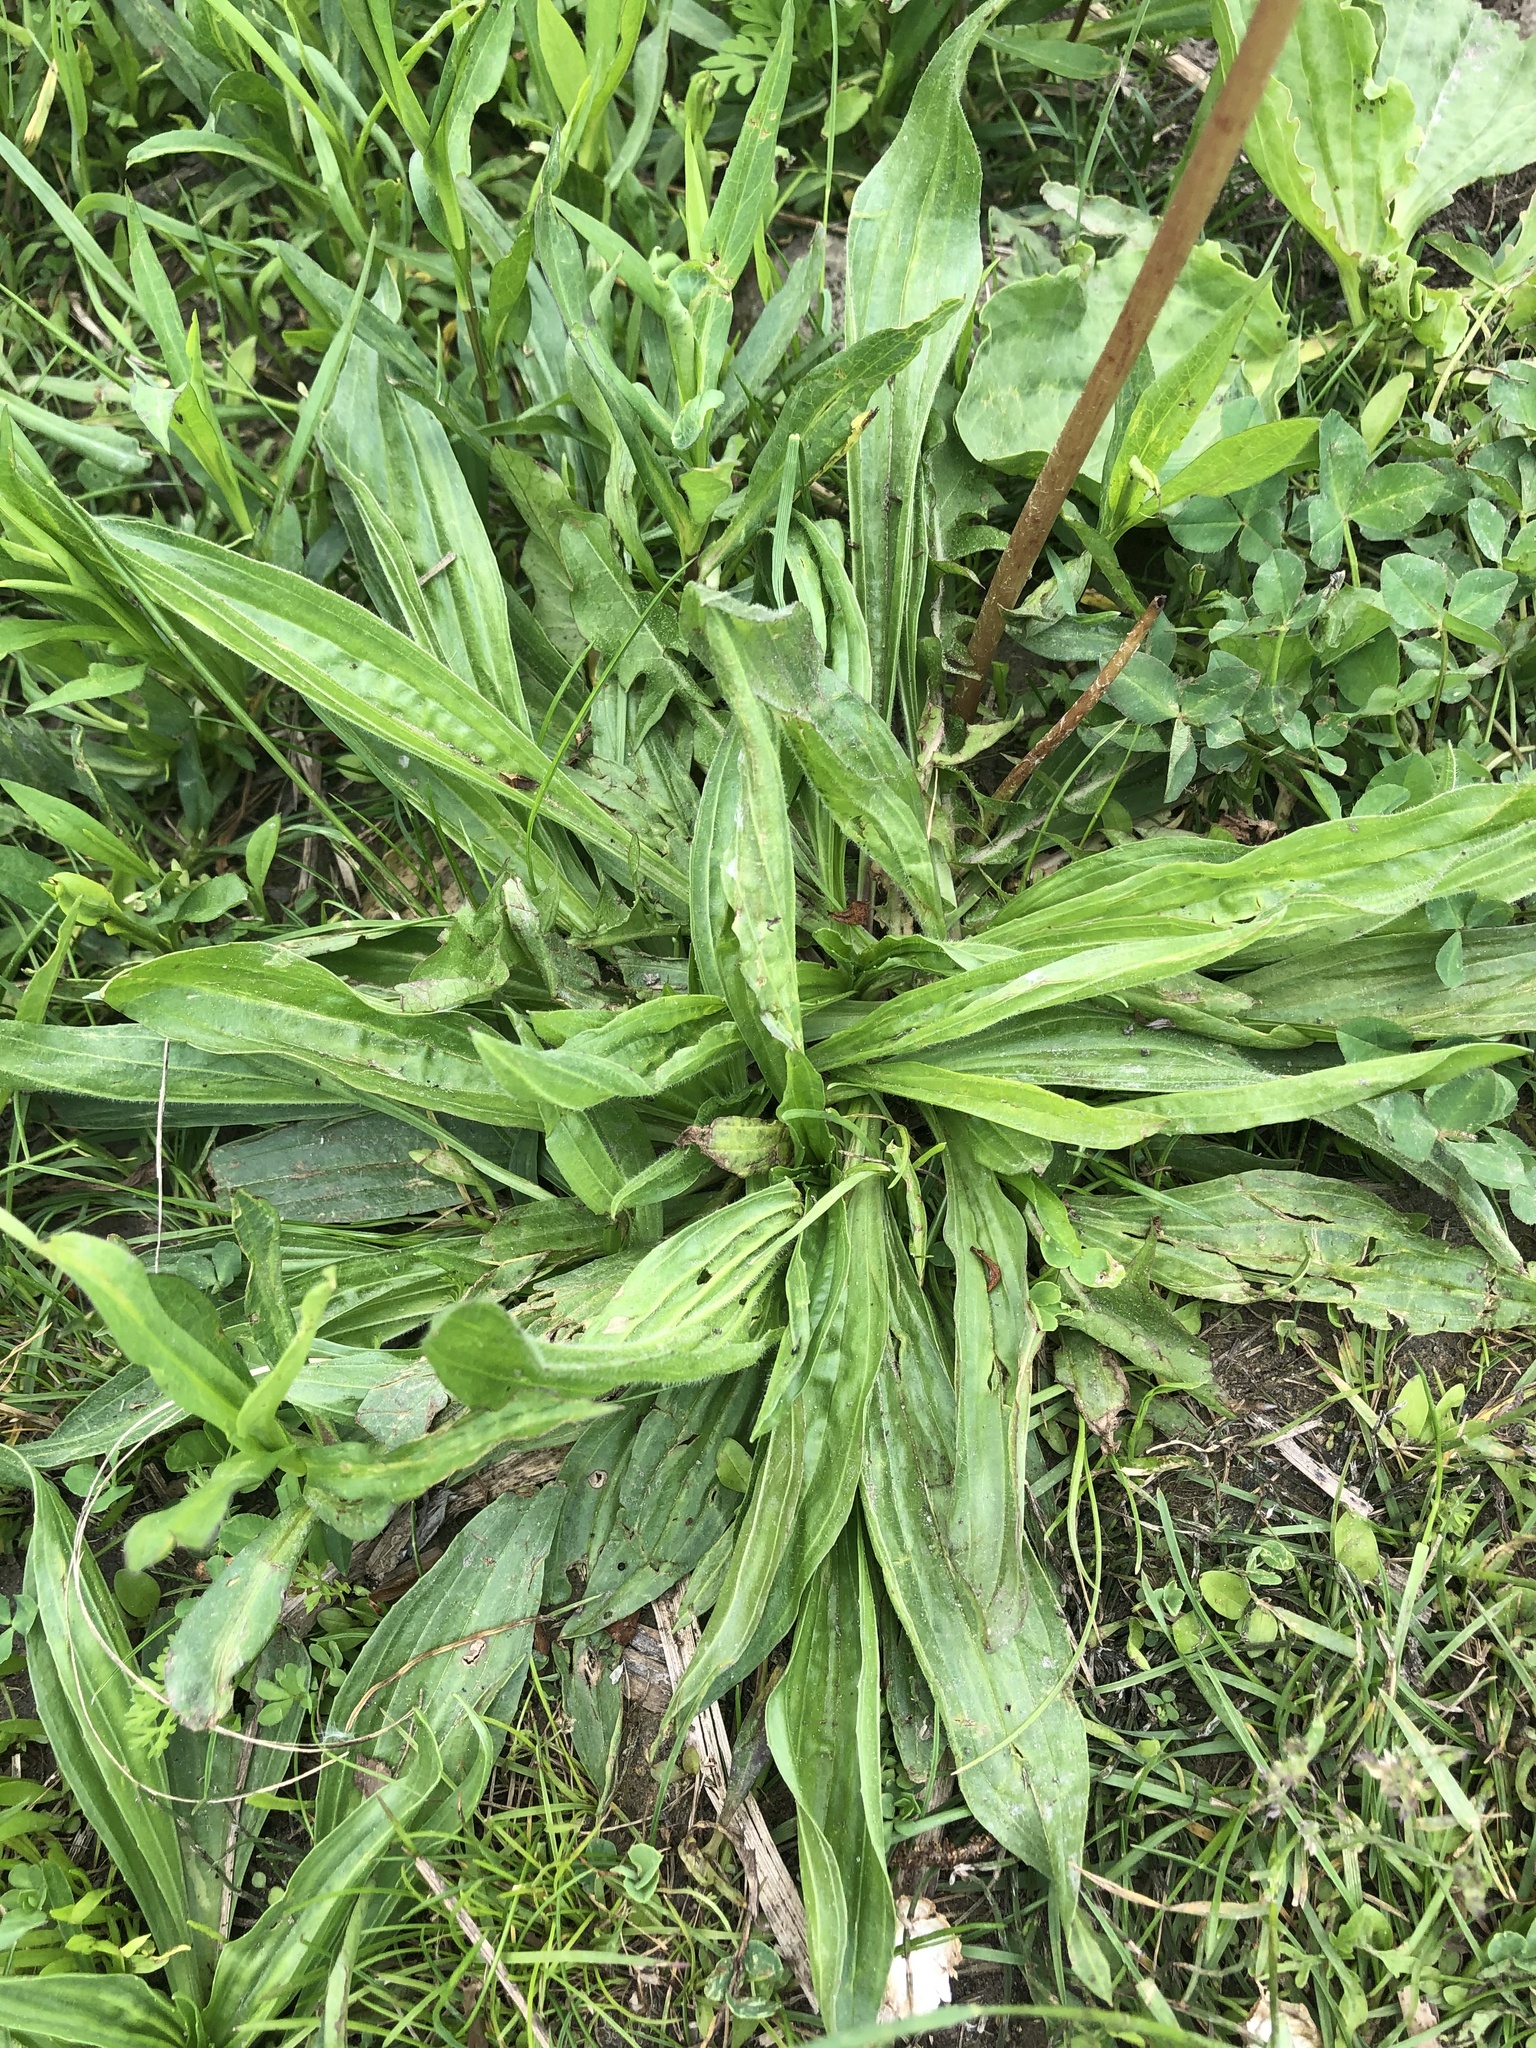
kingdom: Plantae
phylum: Tracheophyta
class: Magnoliopsida
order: Lamiales
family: Plantaginaceae
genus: Plantago
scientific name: Plantago lanceolata
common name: Ribwort plantain
